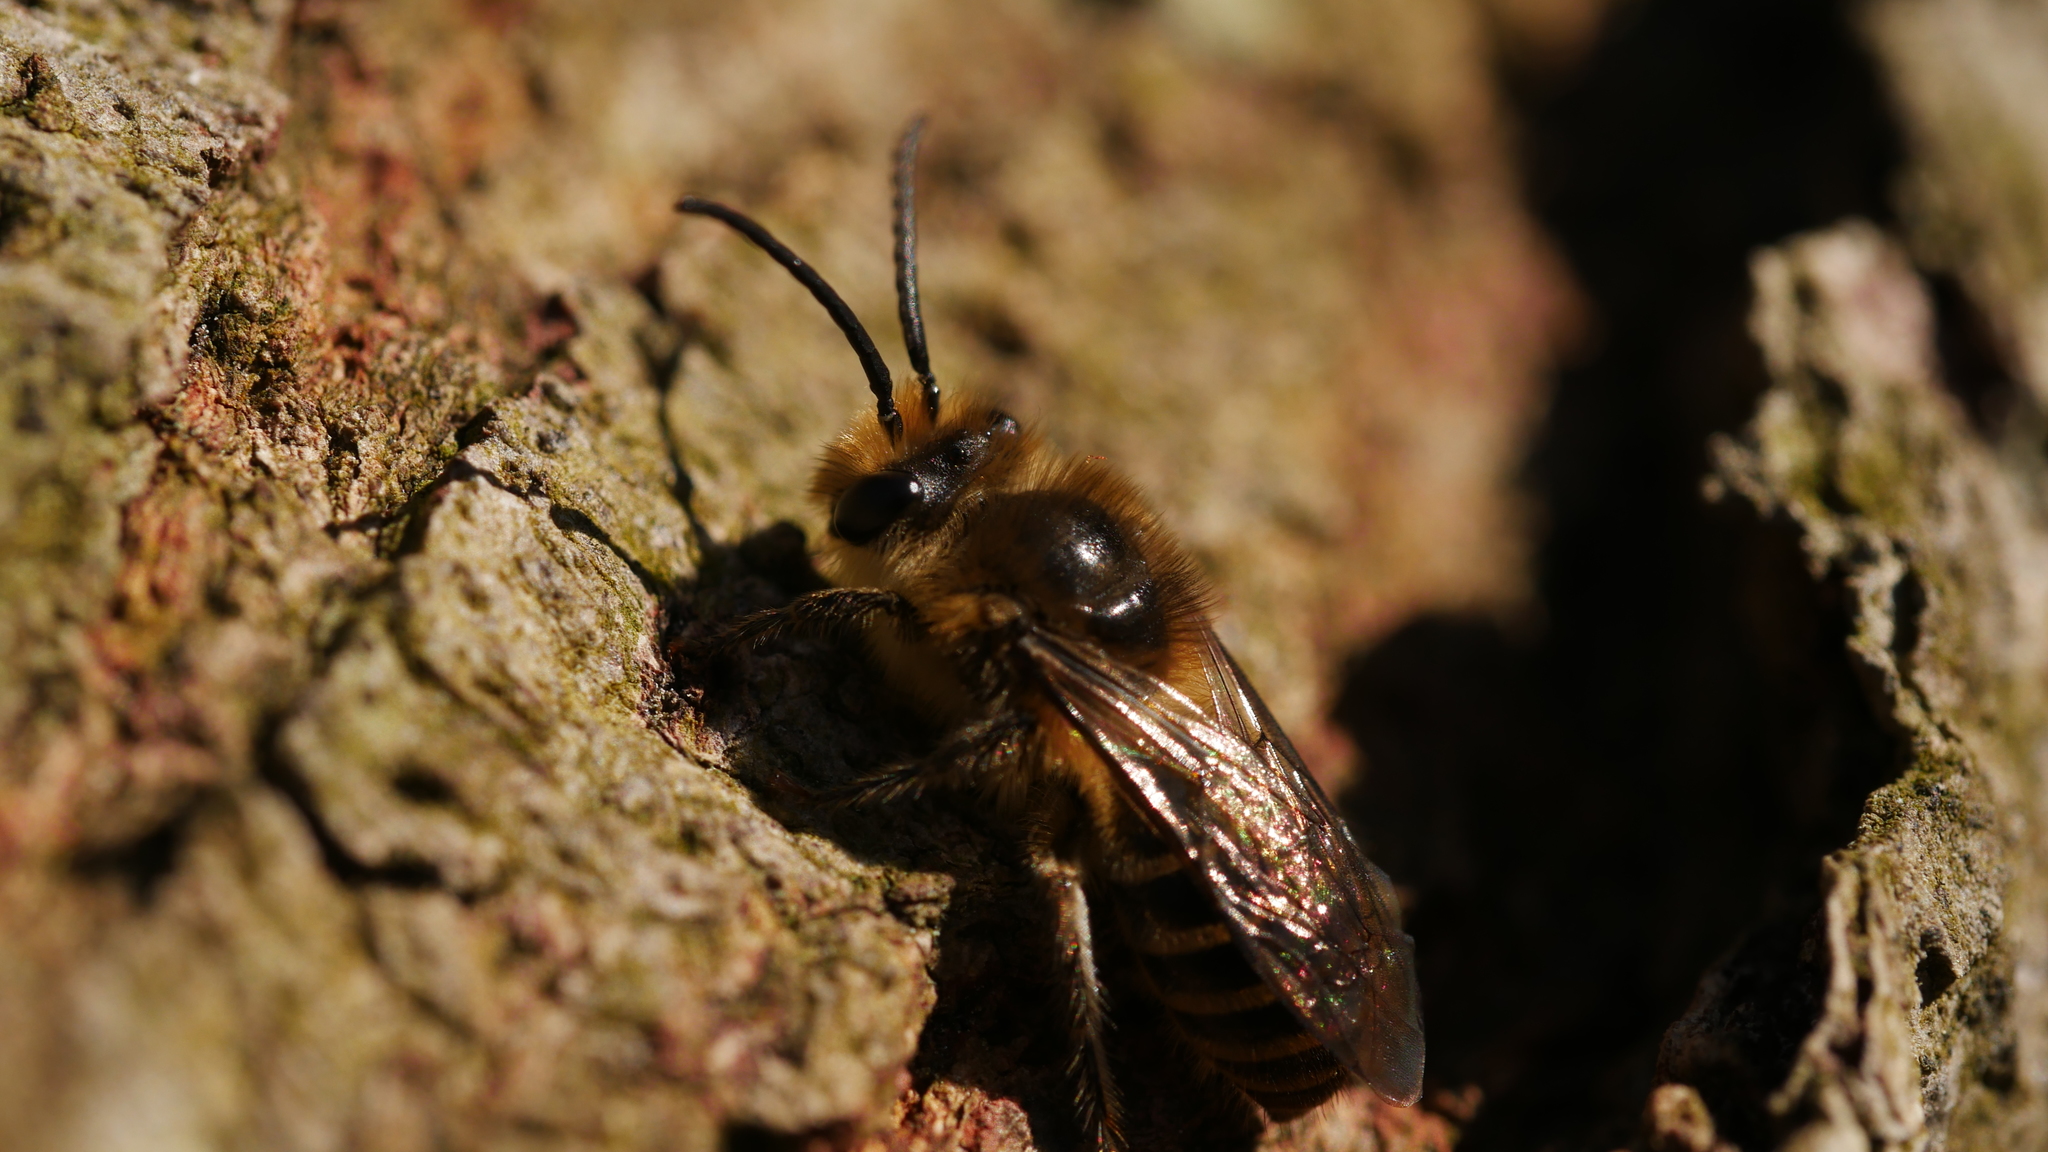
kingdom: Animalia
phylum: Arthropoda
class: Insecta
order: Hymenoptera
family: Colletidae
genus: Colletes
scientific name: Colletes inaequalis
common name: Unequal cellophane bee
